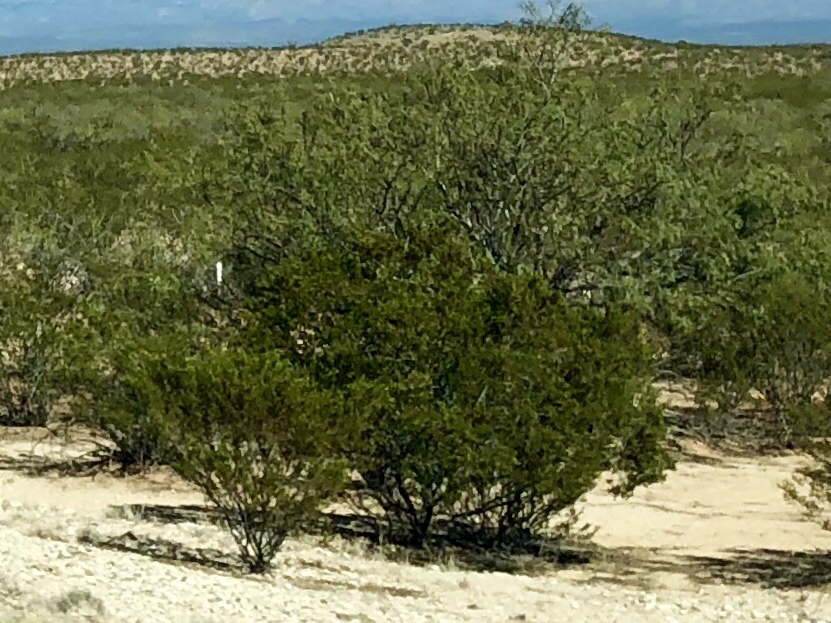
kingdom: Plantae
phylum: Tracheophyta
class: Magnoliopsida
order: Zygophyllales
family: Zygophyllaceae
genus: Larrea
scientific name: Larrea tridentata
